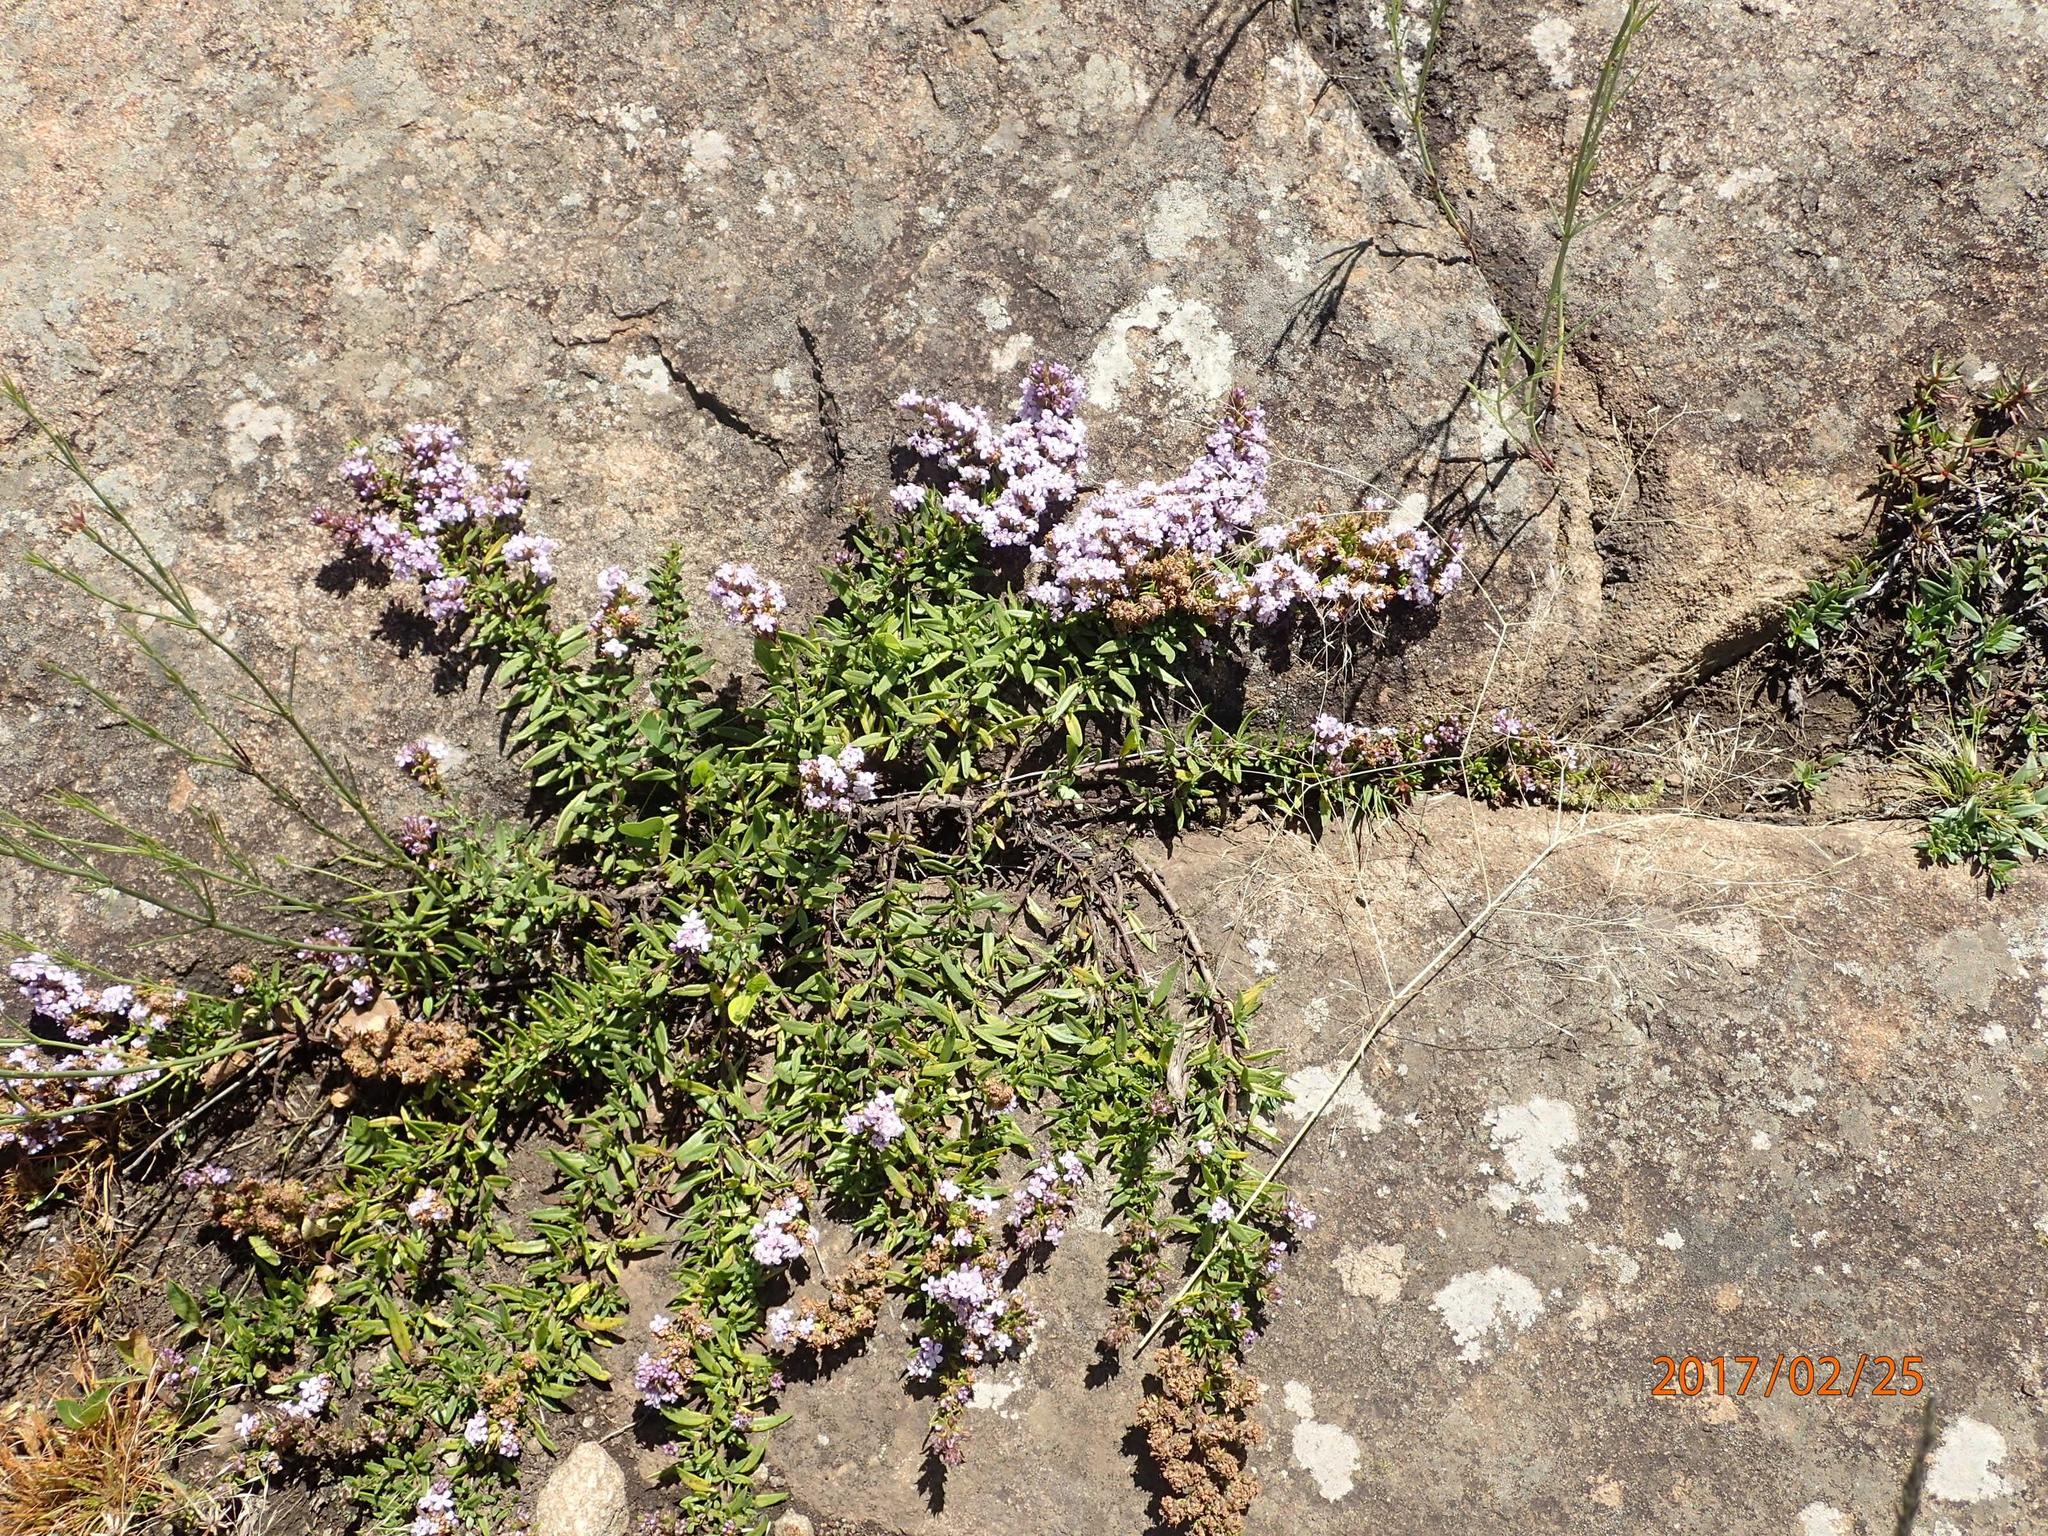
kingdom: Plantae
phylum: Tracheophyta
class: Magnoliopsida
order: Lamiales
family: Scrophulariaceae
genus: Selago
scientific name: Selago galpinii
